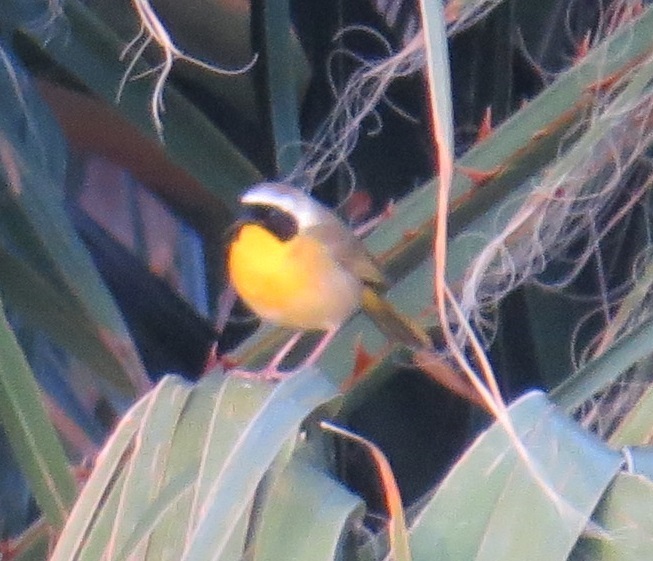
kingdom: Animalia
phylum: Chordata
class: Aves
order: Passeriformes
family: Parulidae
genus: Geothlypis
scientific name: Geothlypis trichas
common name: Common yellowthroat
